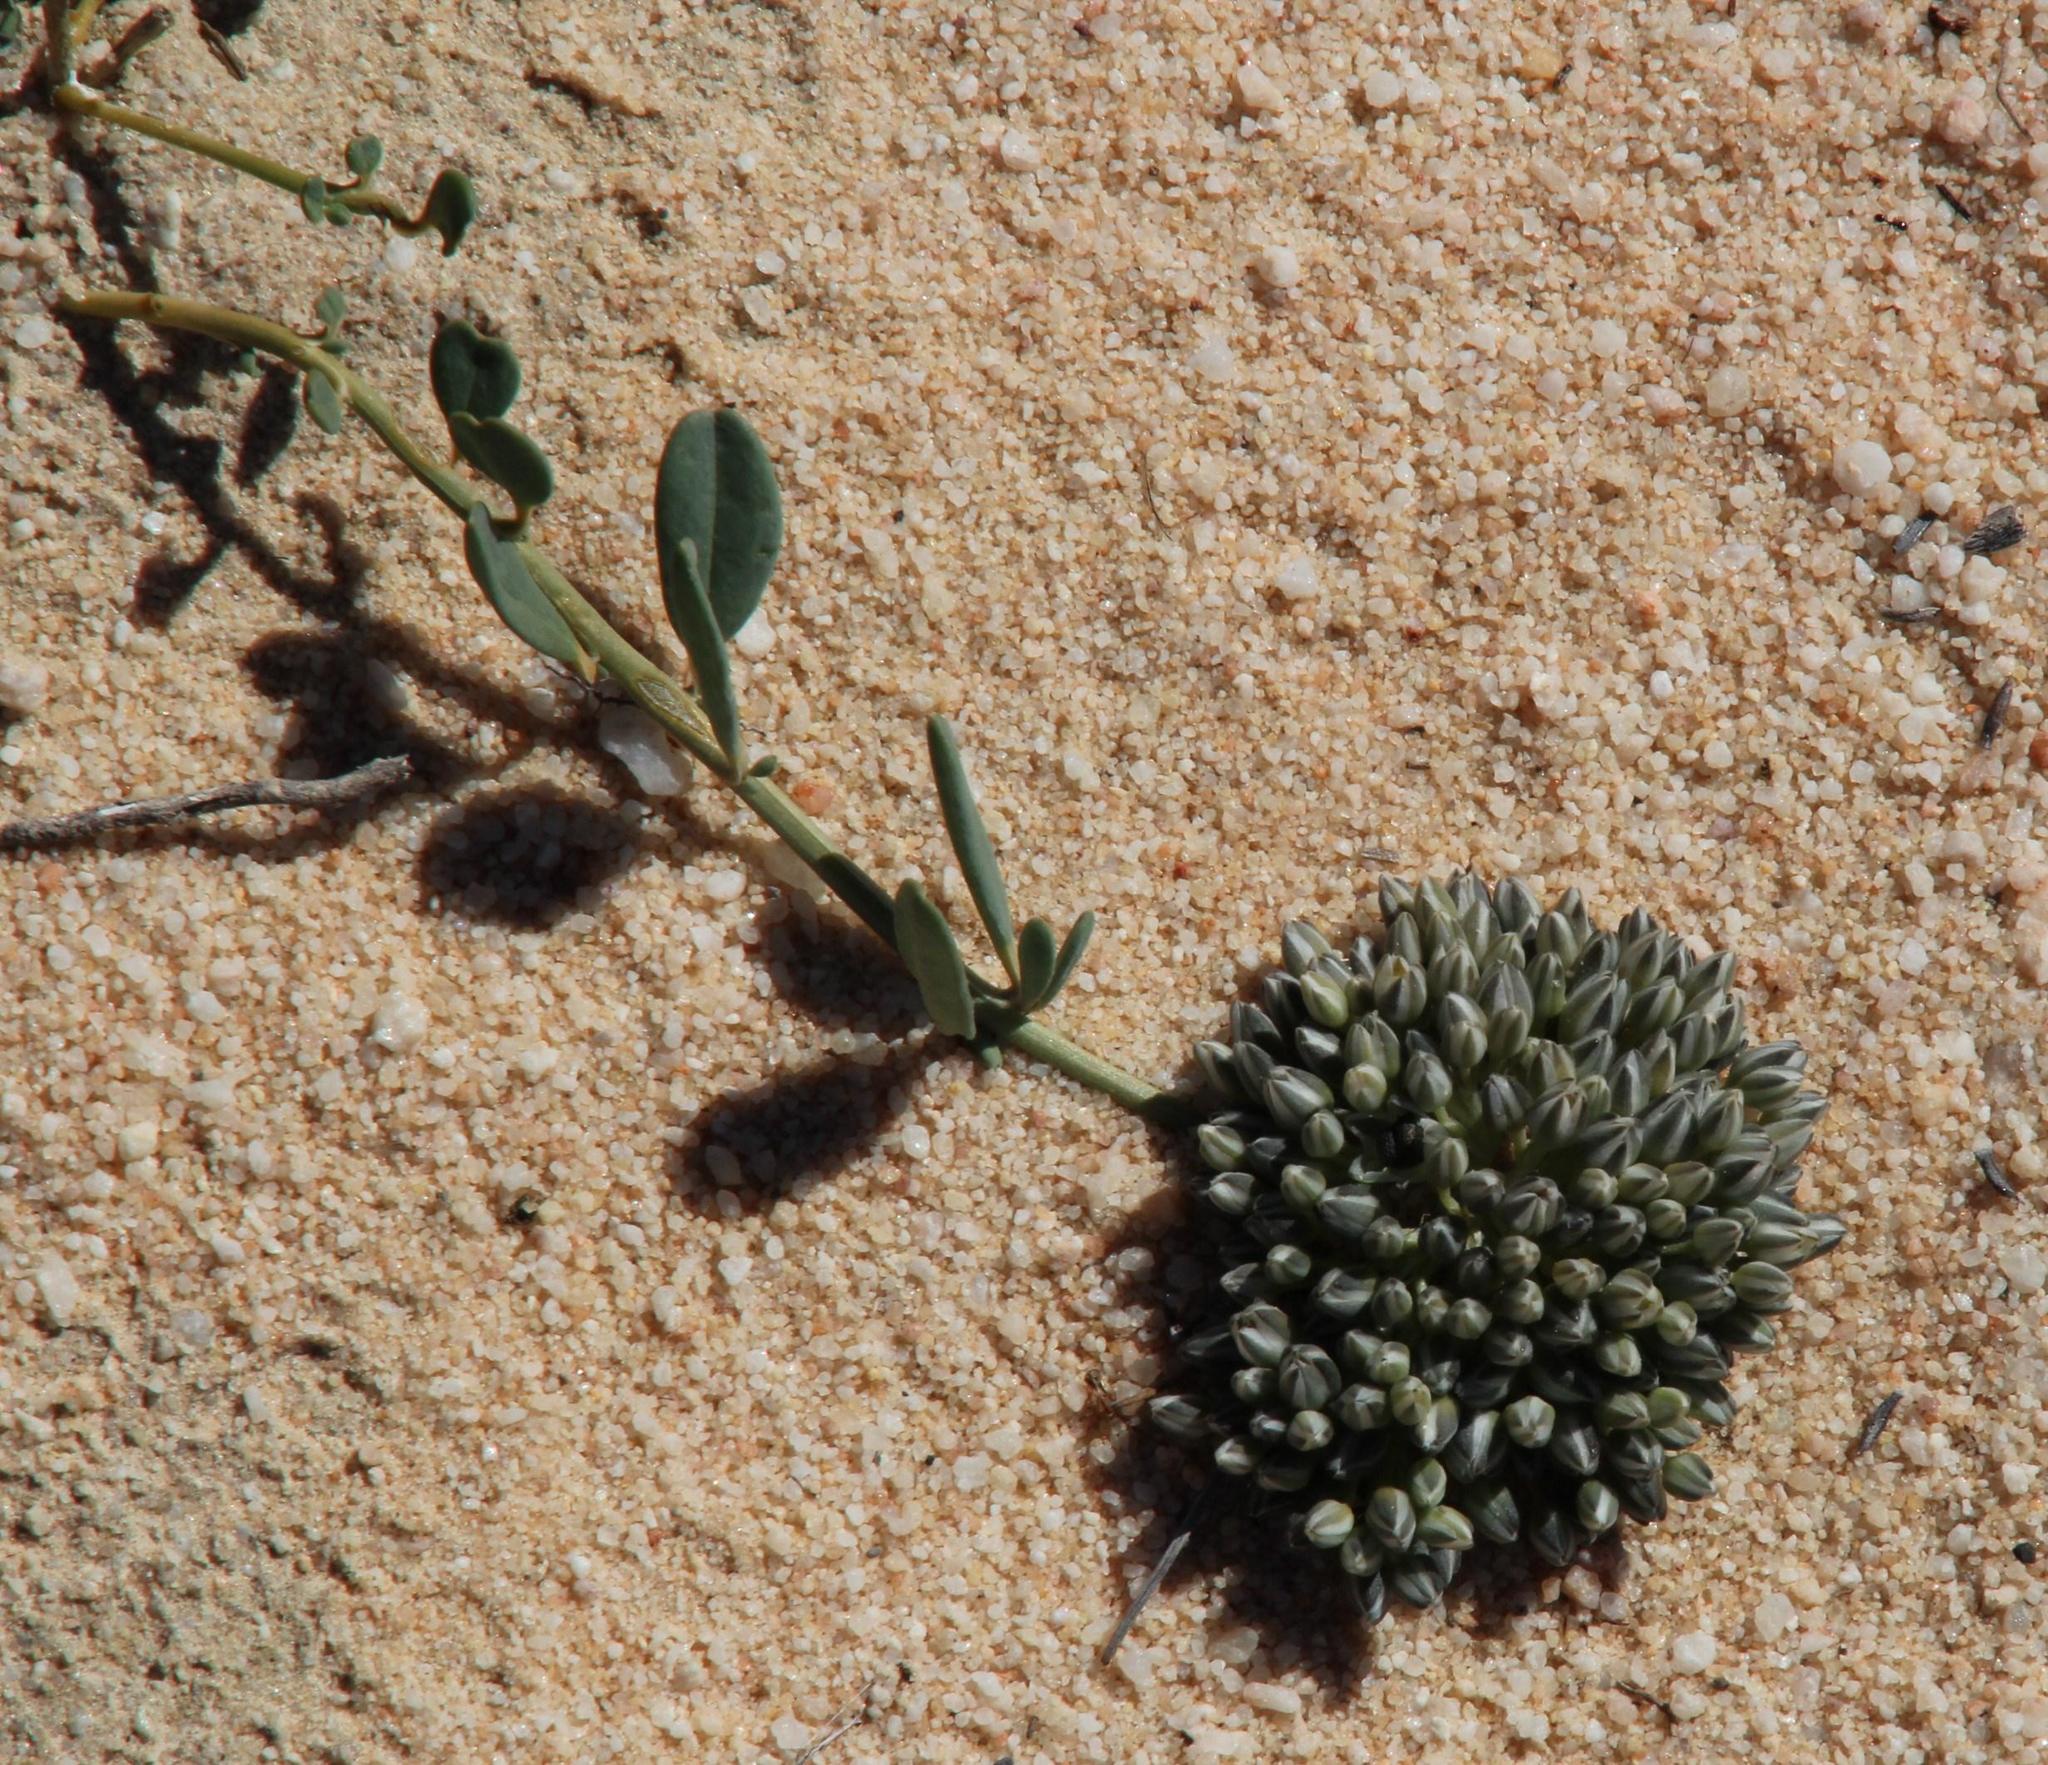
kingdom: Plantae
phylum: Tracheophyta
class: Magnoliopsida
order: Caryophyllales
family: Limeaceae
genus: Limeum
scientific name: Limeum africanum
